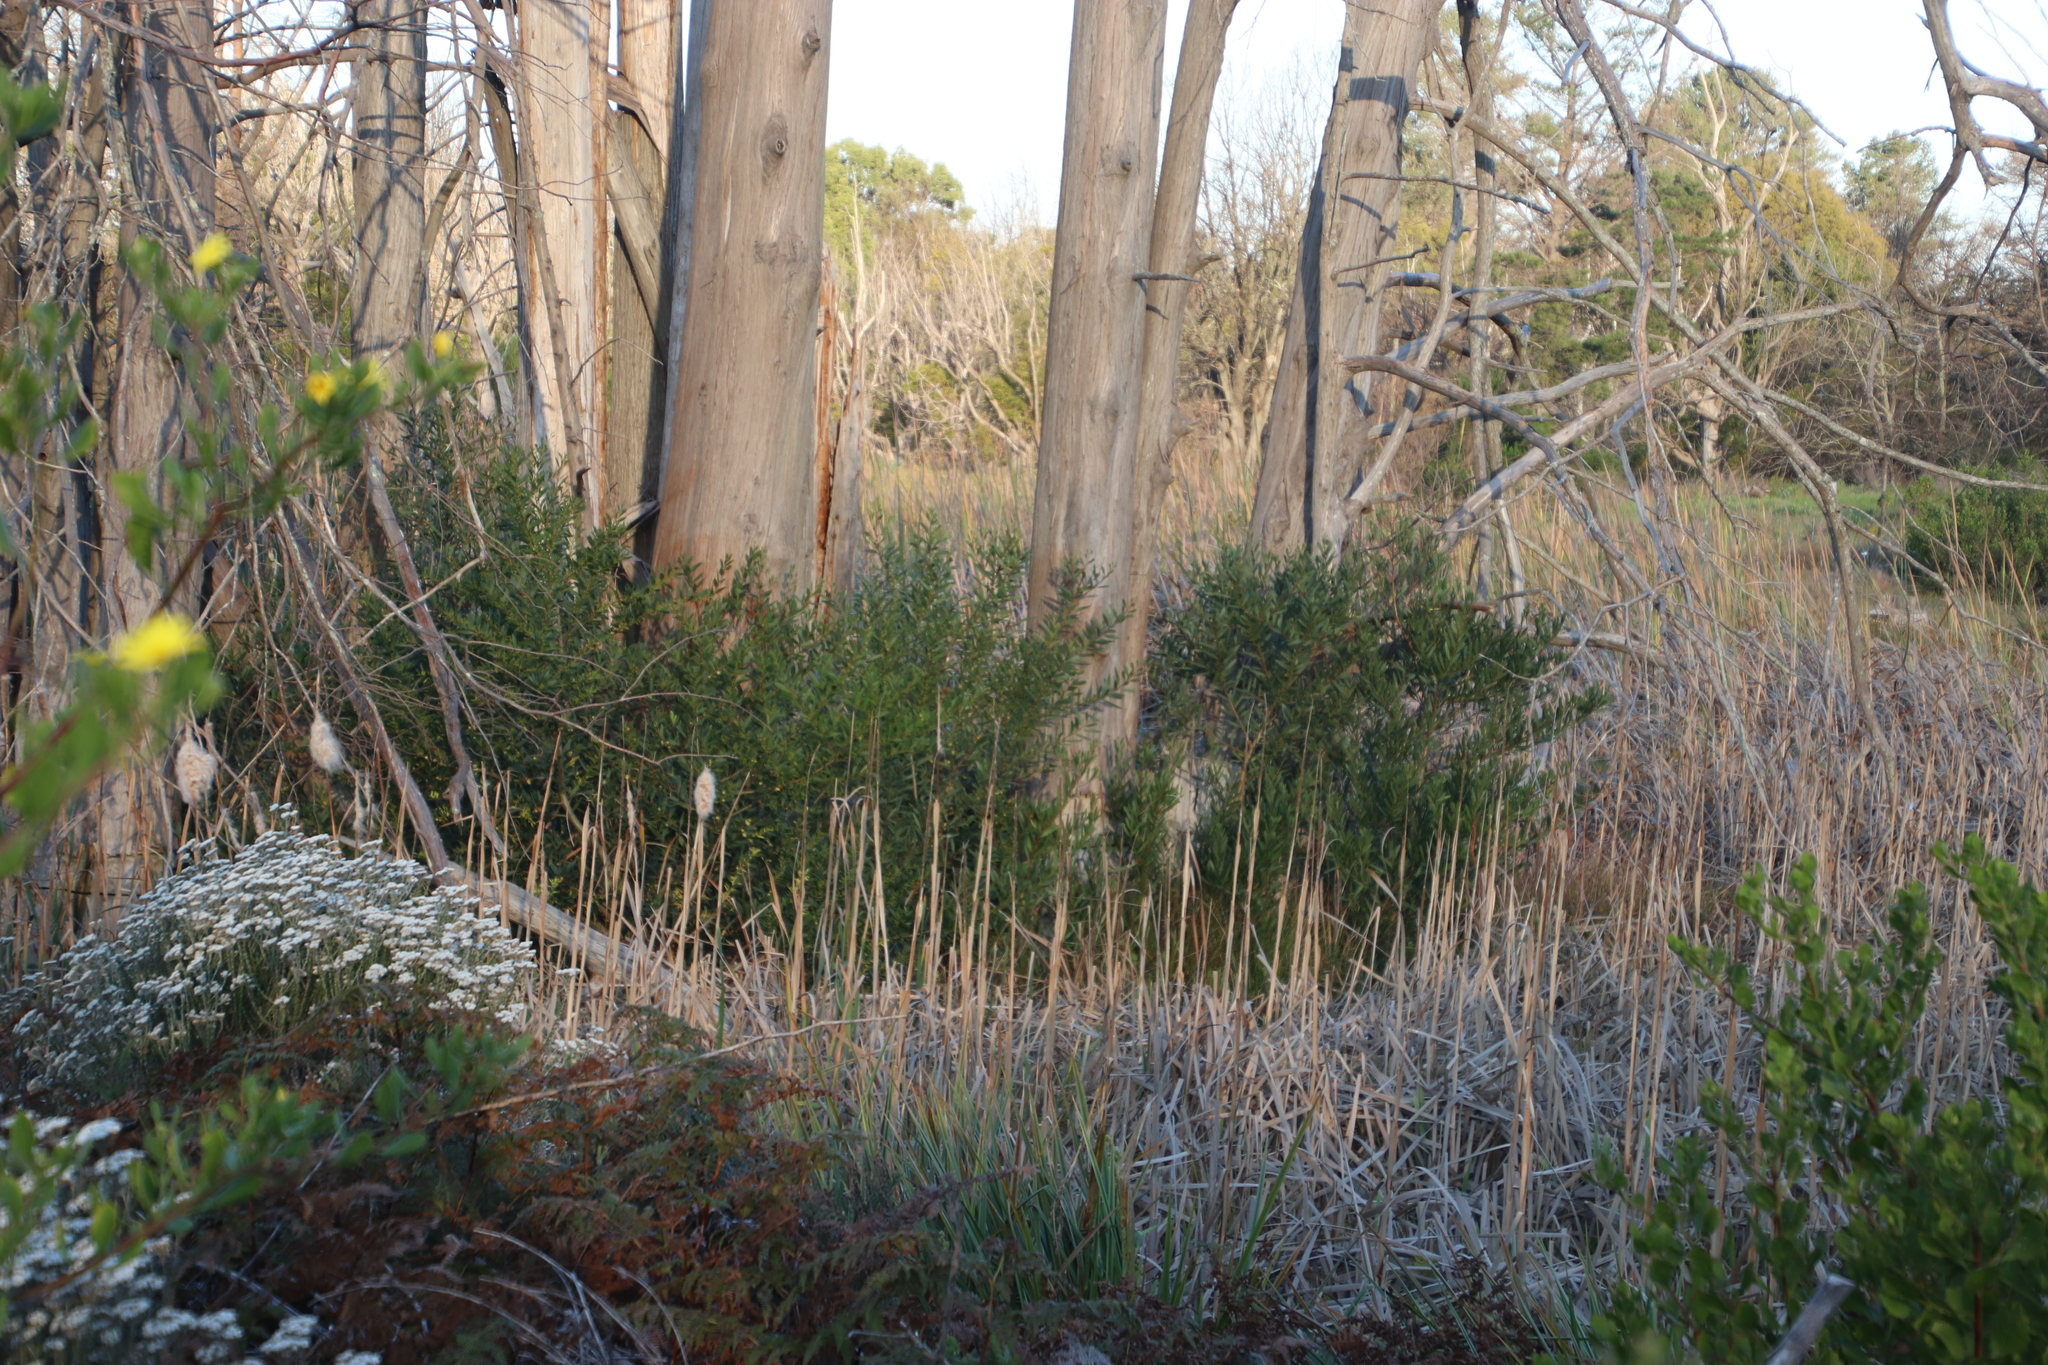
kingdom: Plantae
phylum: Tracheophyta
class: Magnoliopsida
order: Fabales
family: Fabaceae
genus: Acacia
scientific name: Acacia longifolia
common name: Sydney golden wattle
